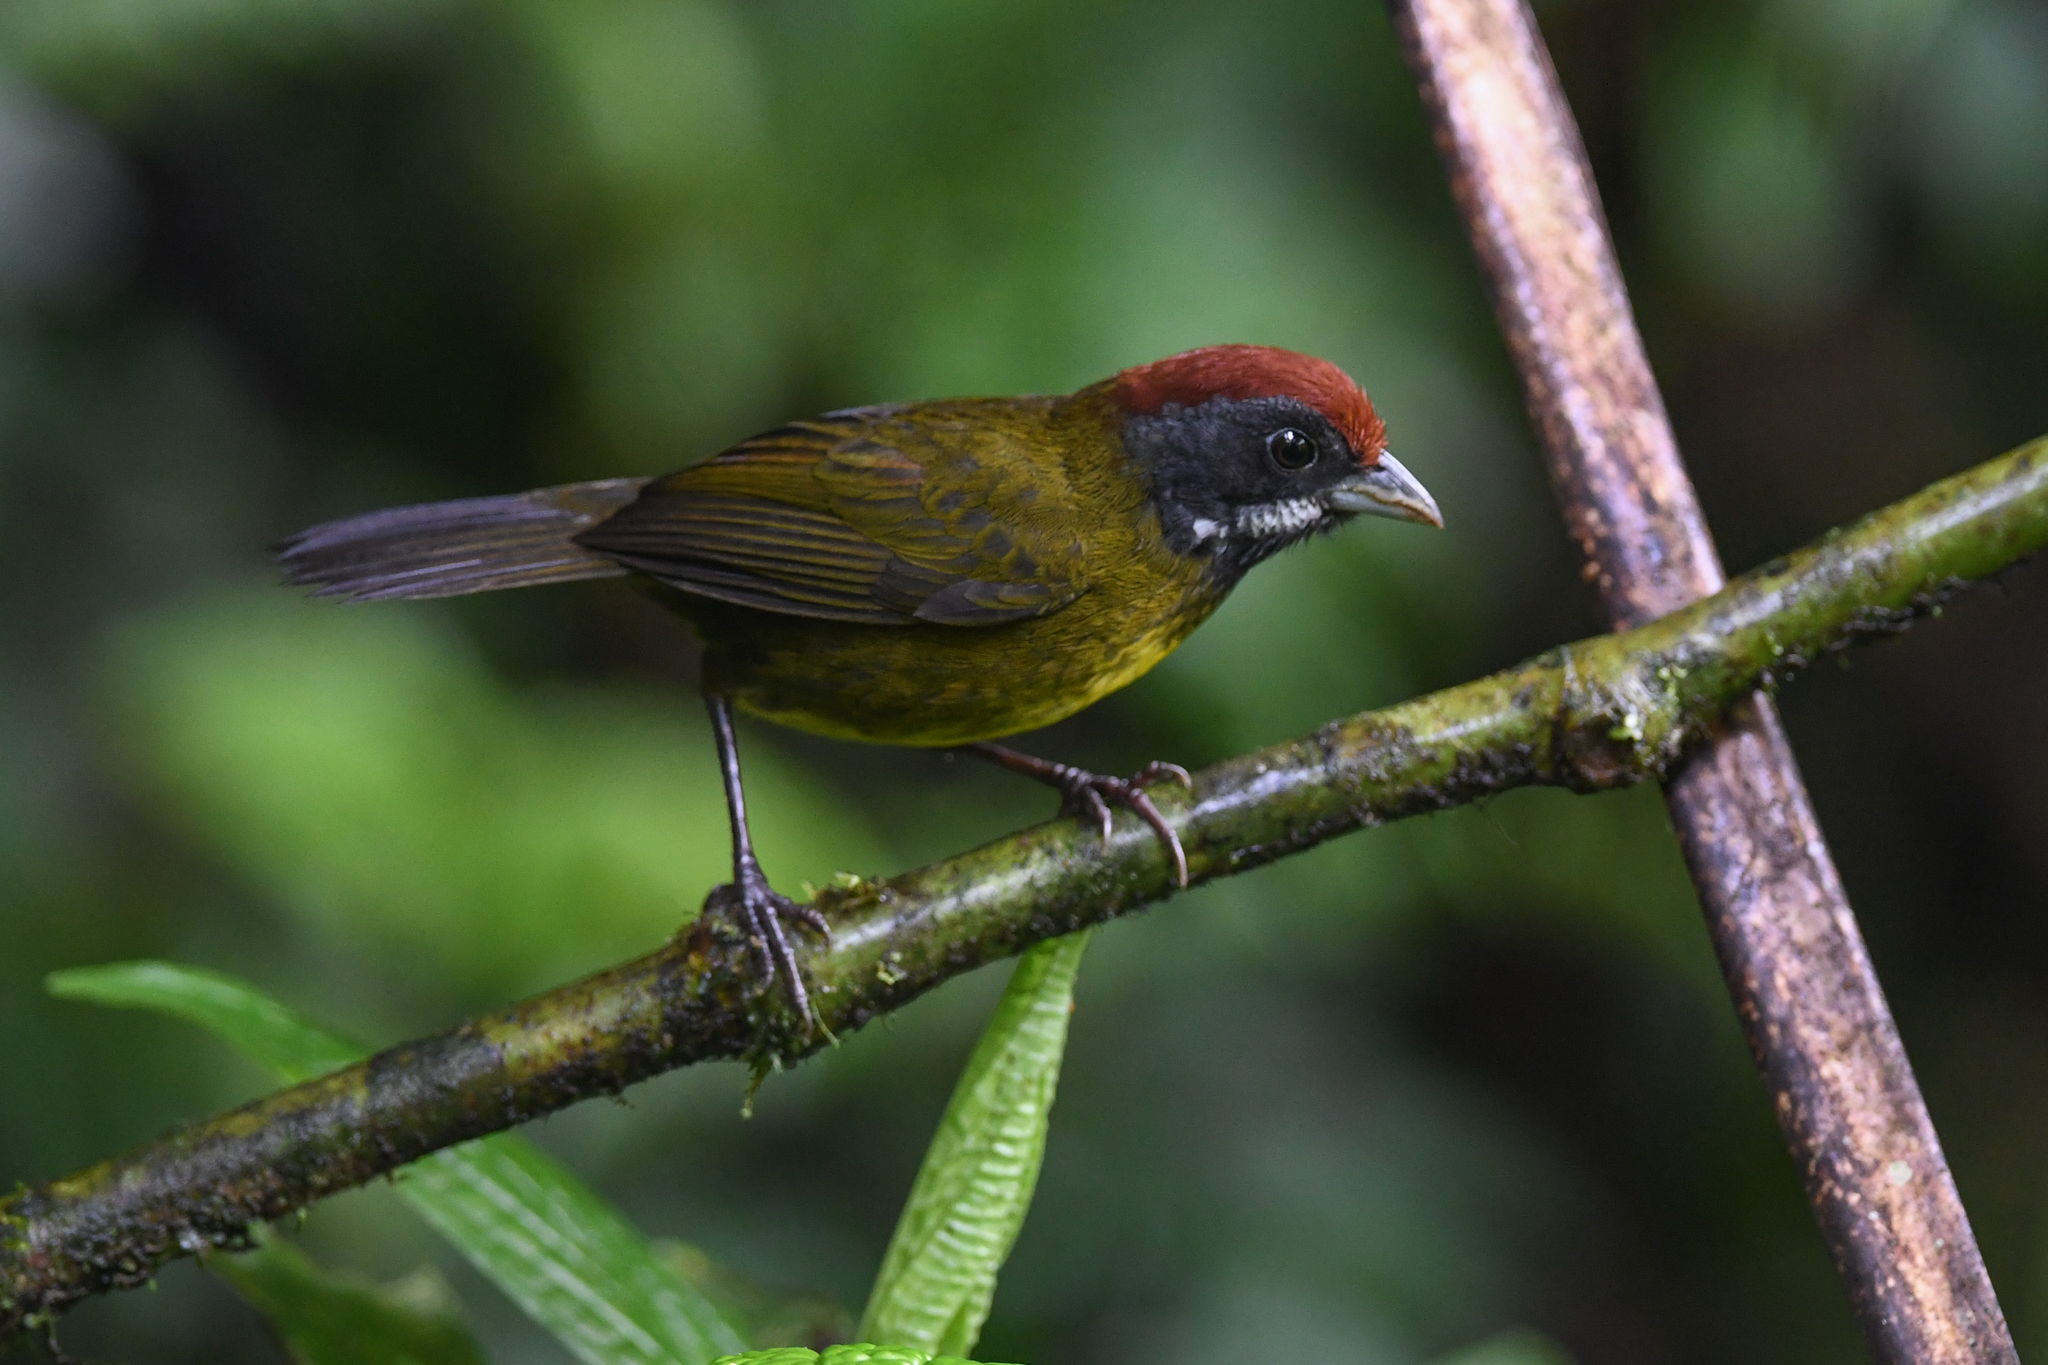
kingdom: Animalia
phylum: Chordata
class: Aves
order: Passeriformes
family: Passerellidae
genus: Arremon
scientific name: Arremon crassirostris
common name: Sooty-faced finch
